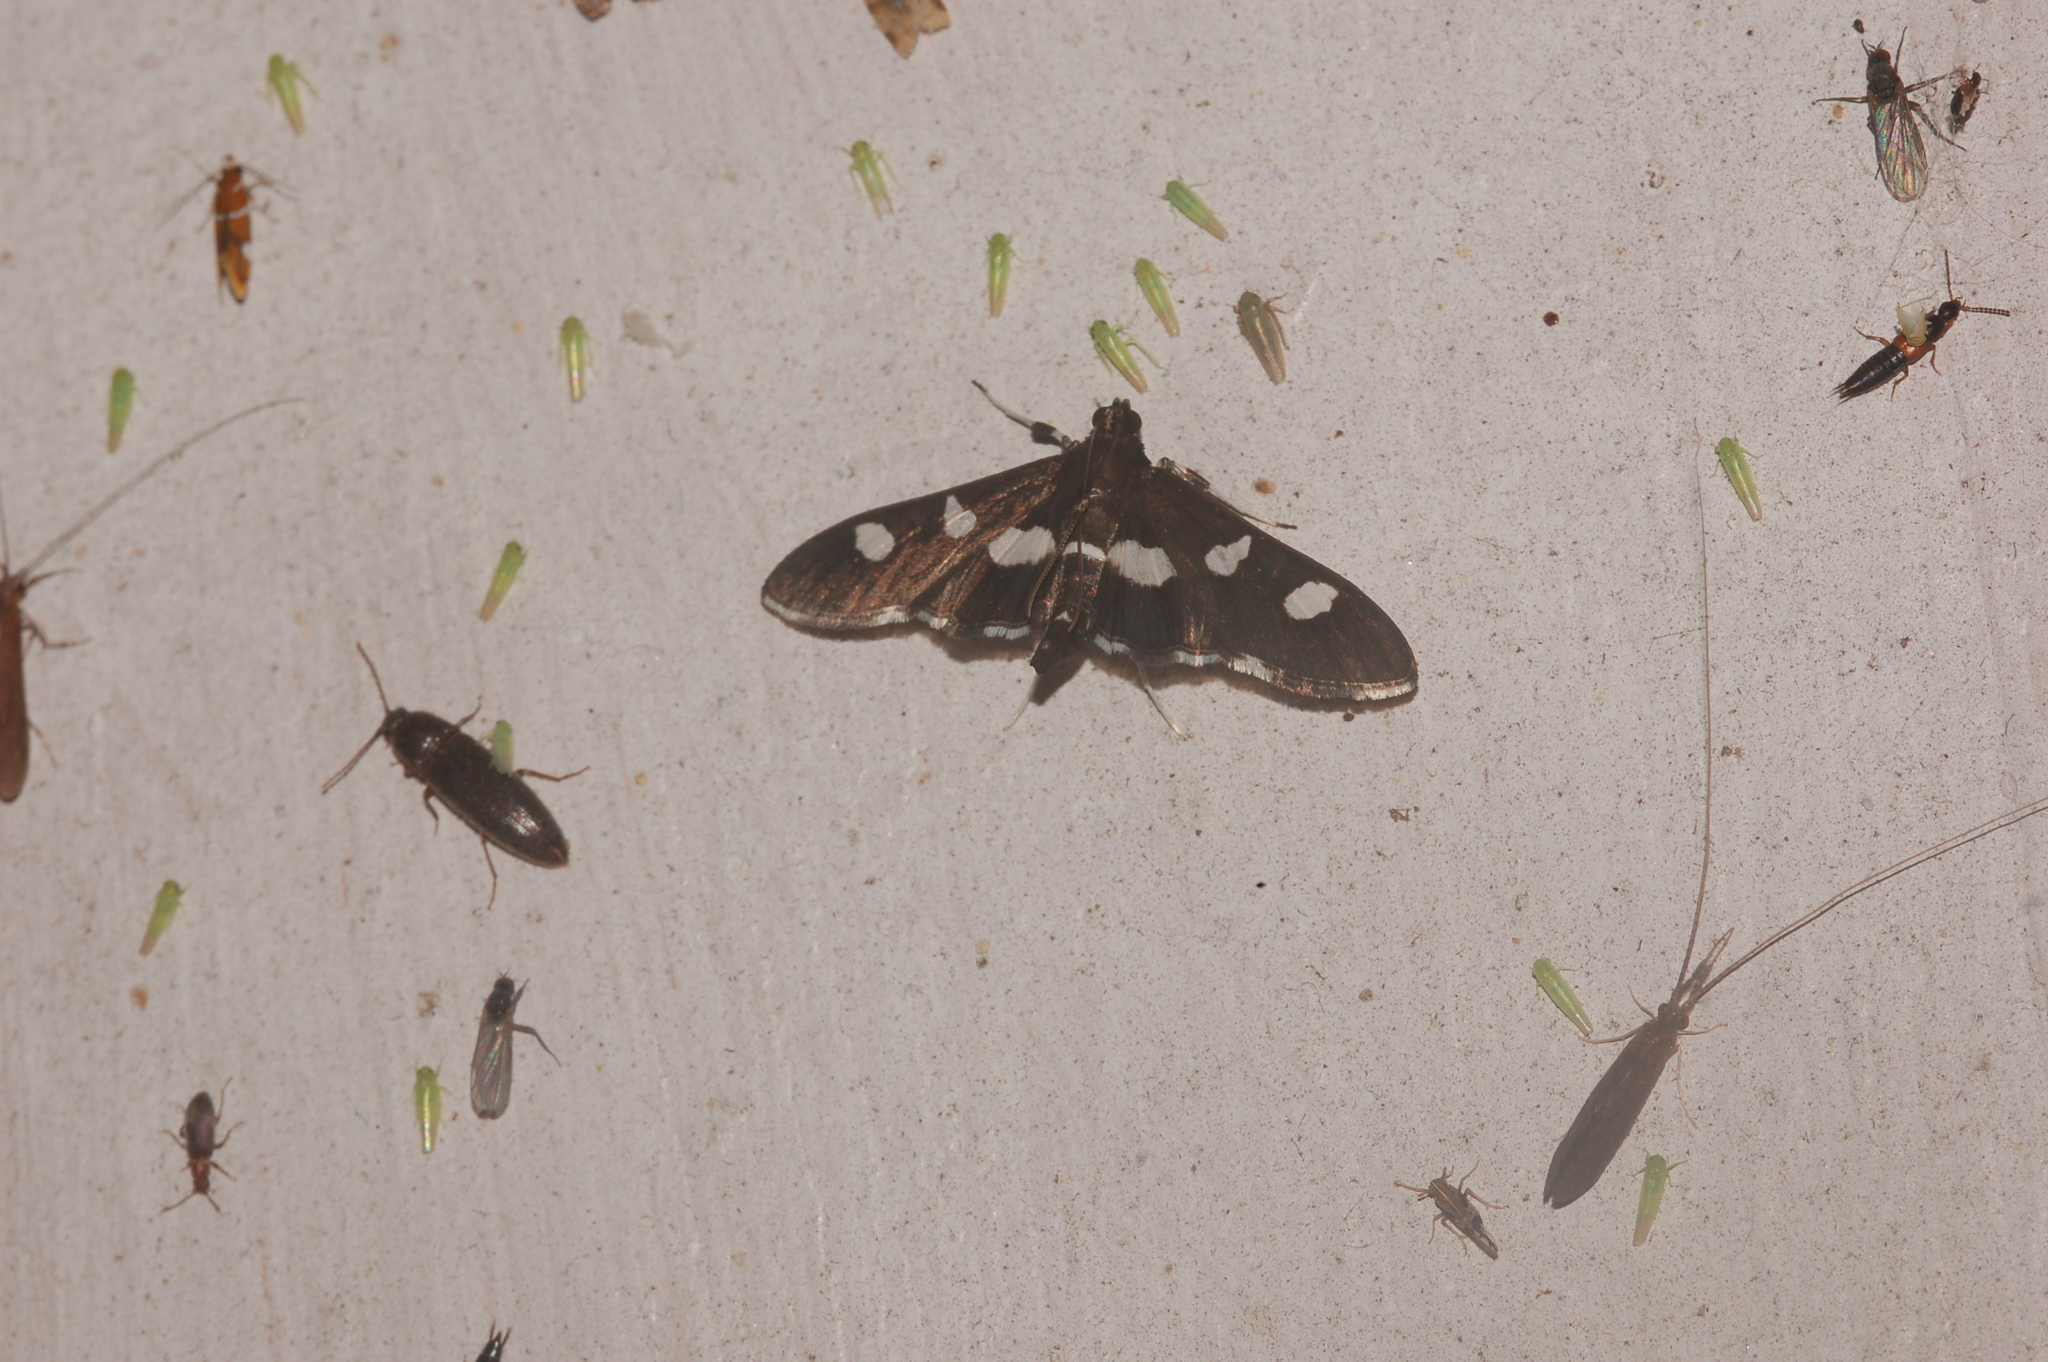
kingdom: Animalia
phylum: Arthropoda
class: Insecta
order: Lepidoptera
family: Crambidae
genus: Desmia
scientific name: Desmia
